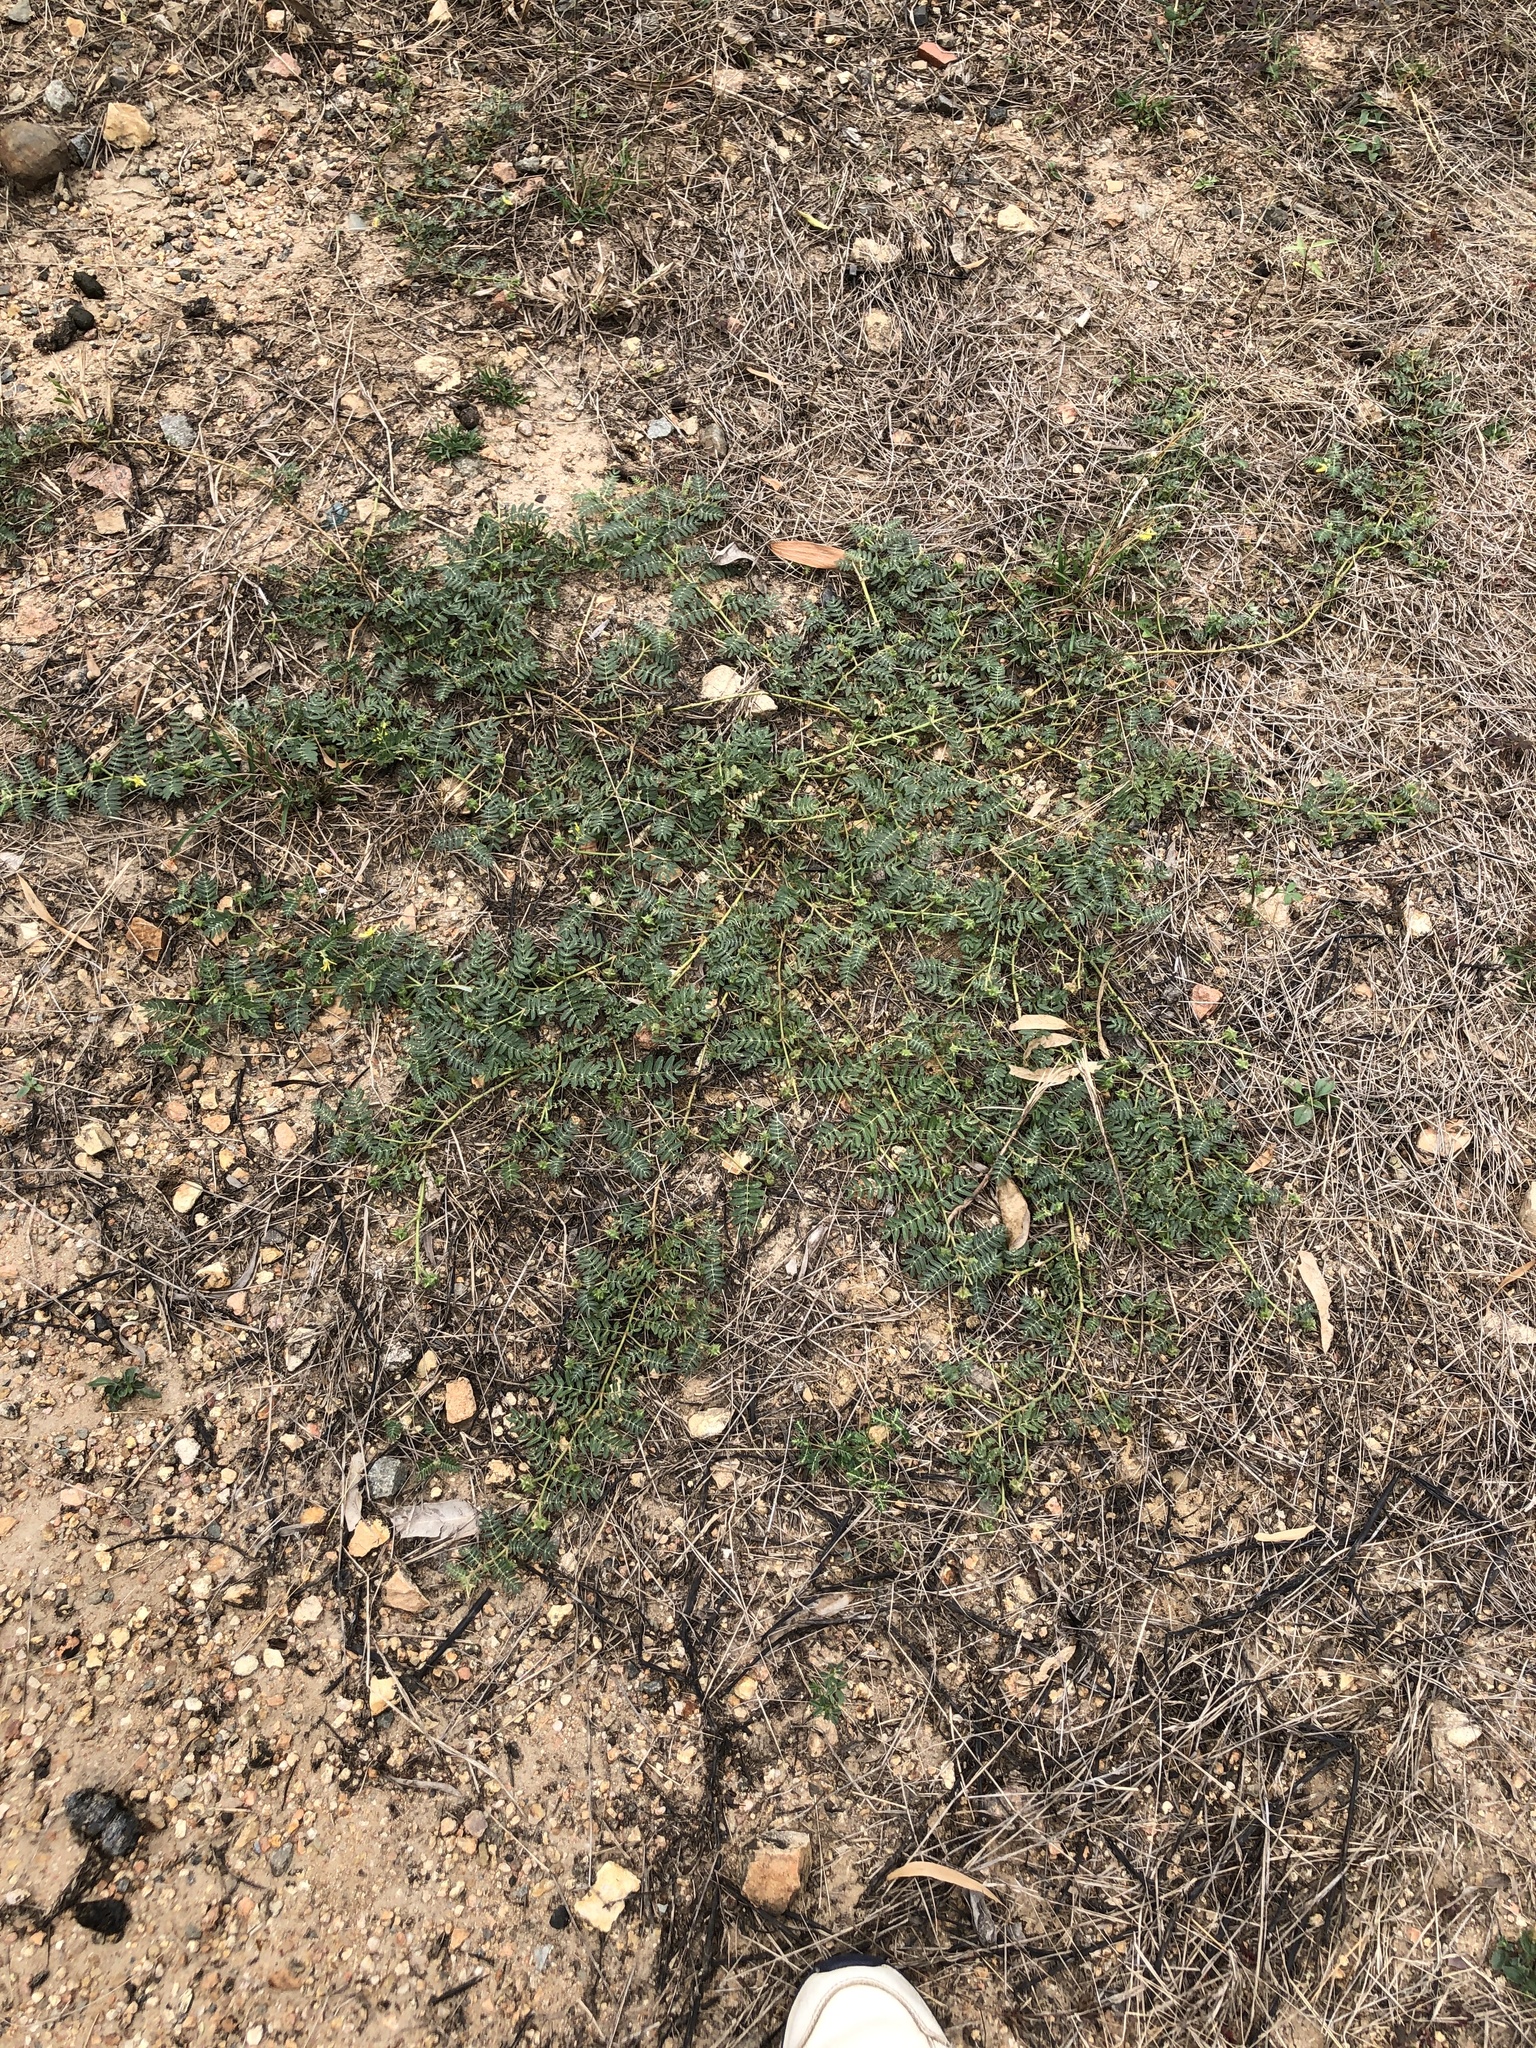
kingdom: Plantae
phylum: Tracheophyta
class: Magnoliopsida
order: Zygophyllales
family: Zygophyllaceae
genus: Tribulus
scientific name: Tribulus terrestris
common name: Puncturevine
